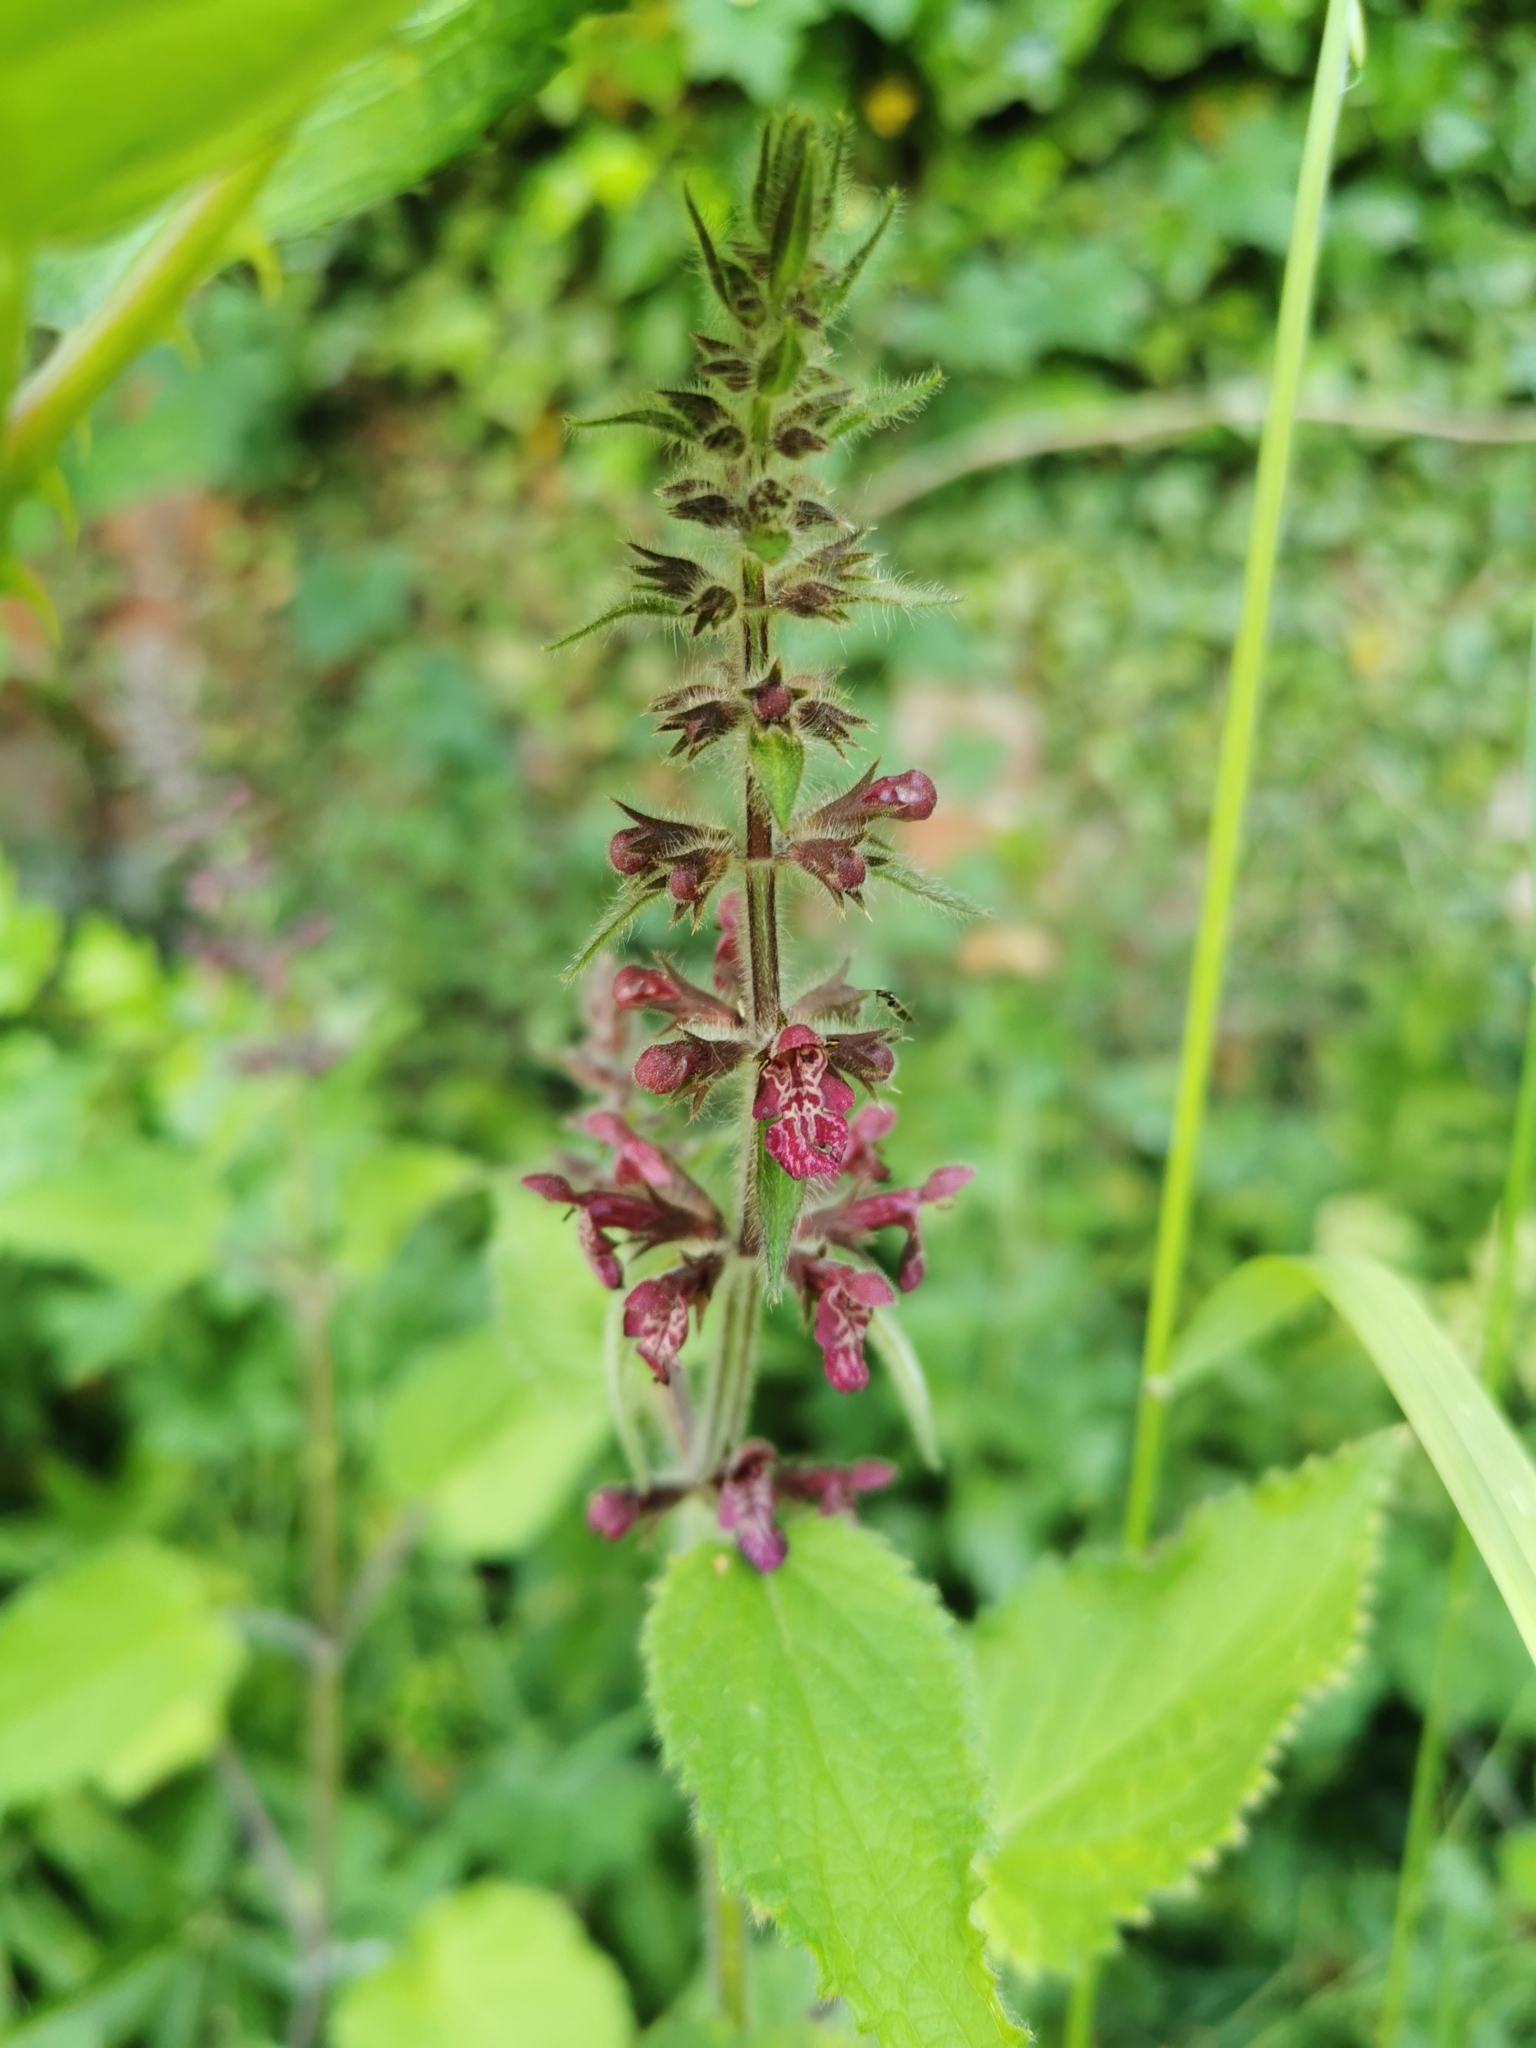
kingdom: Plantae
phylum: Tracheophyta
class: Magnoliopsida
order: Lamiales
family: Lamiaceae
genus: Stachys
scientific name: Stachys sylvatica
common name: Hedge woundwort
